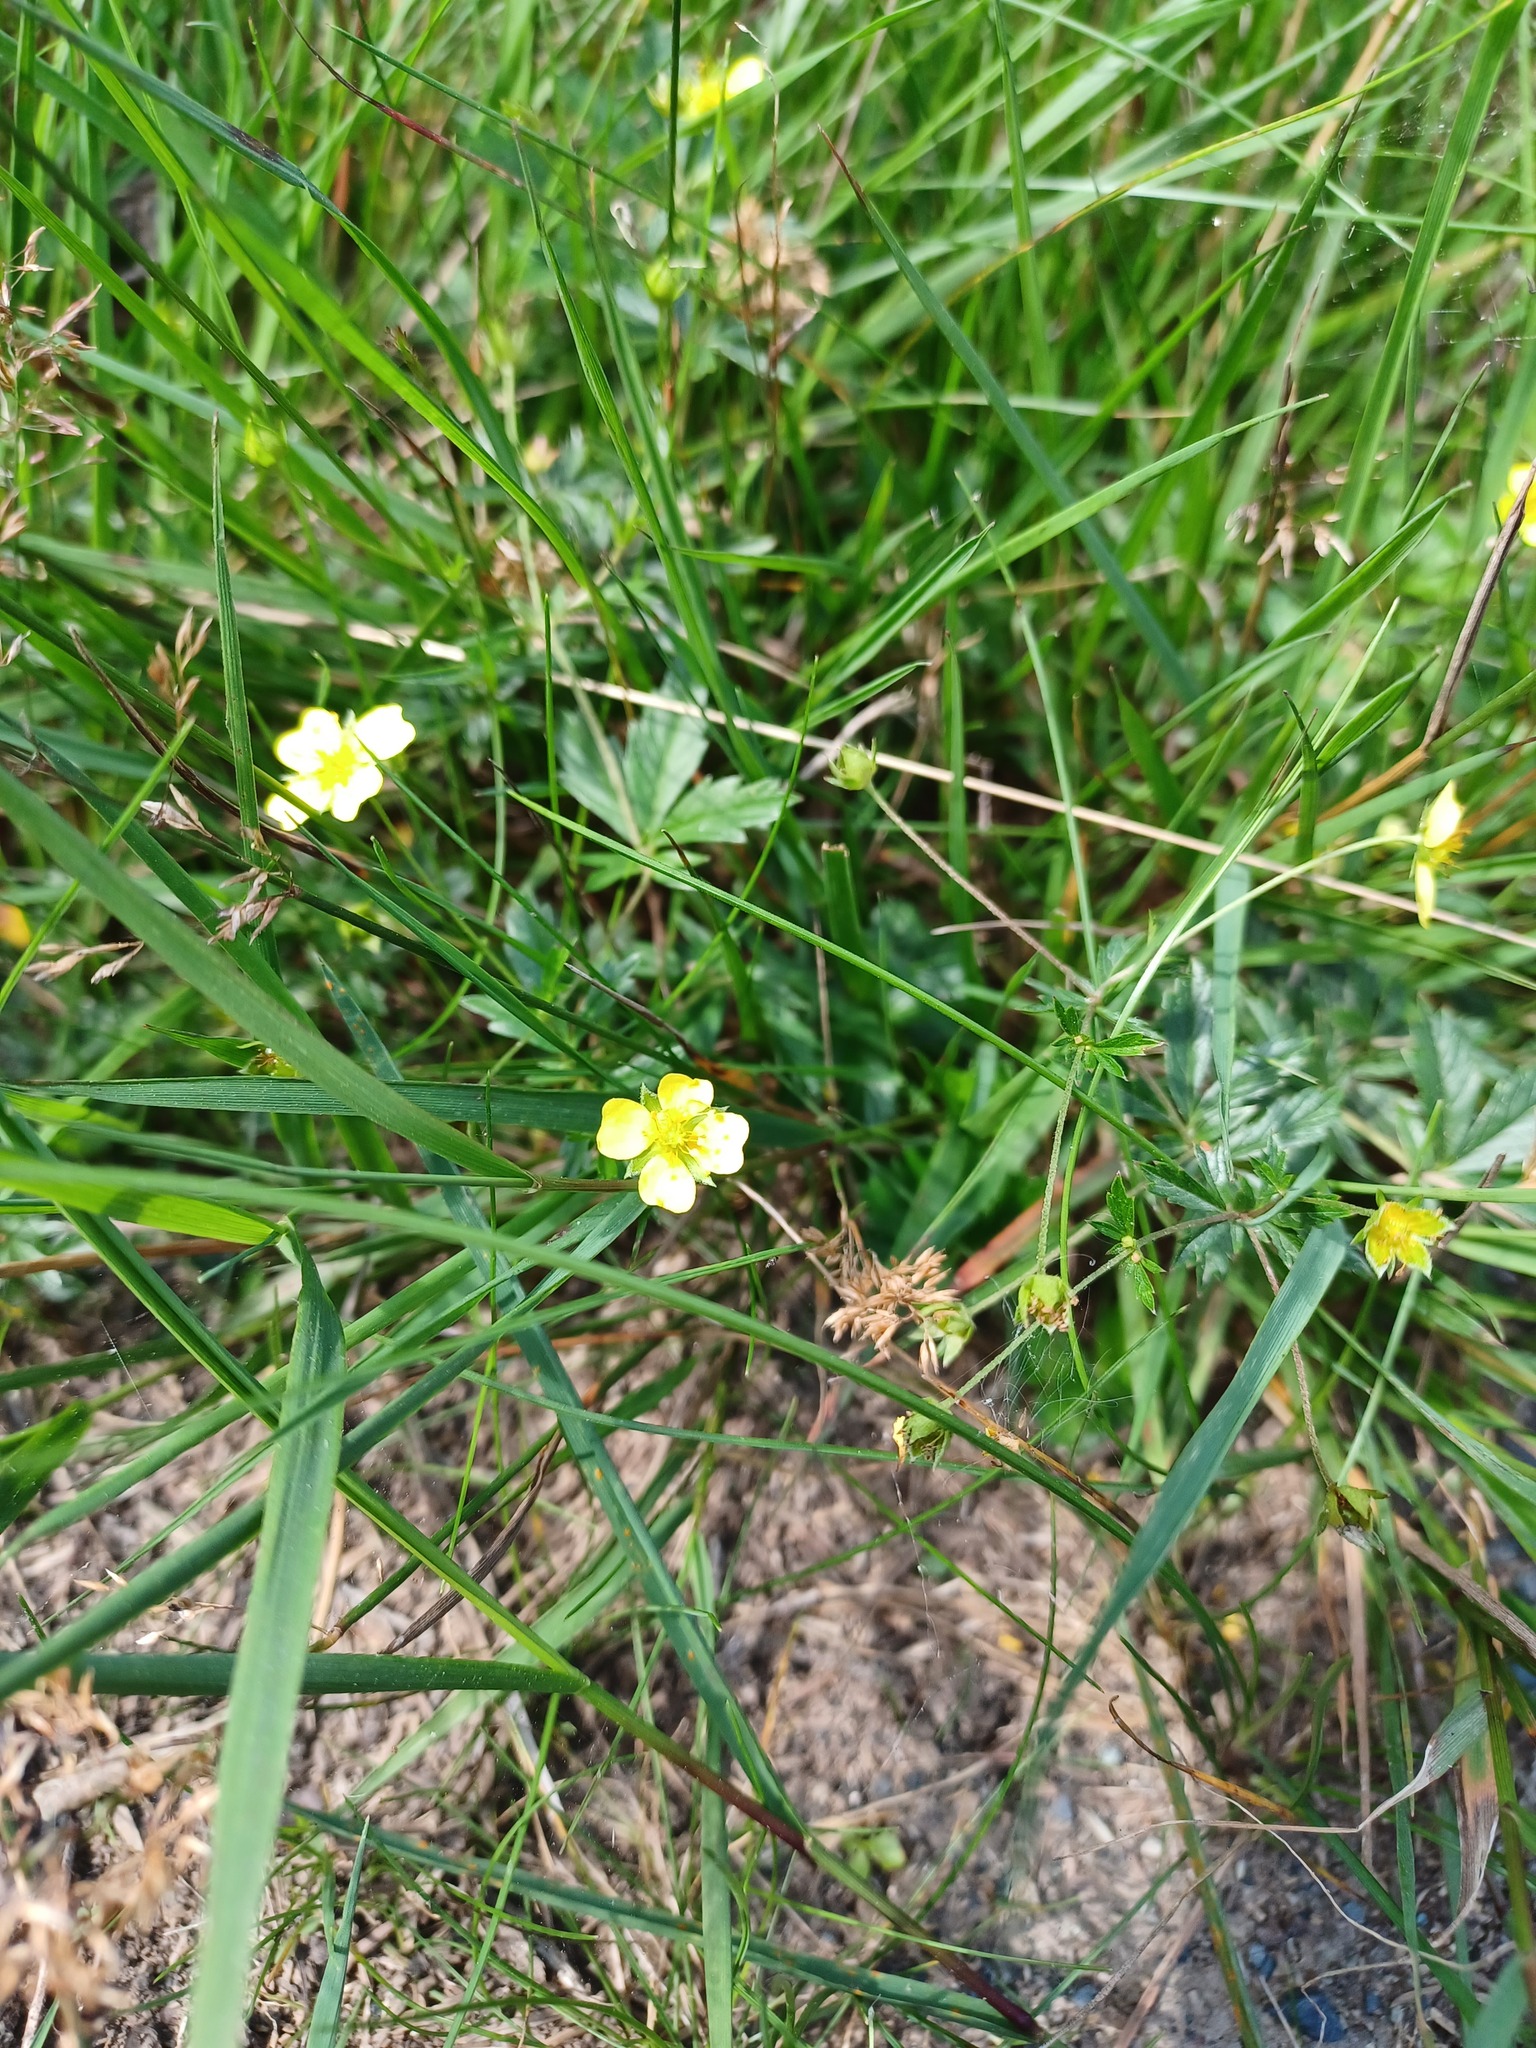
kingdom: Plantae
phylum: Tracheophyta
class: Magnoliopsida
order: Rosales
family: Rosaceae
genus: Potentilla
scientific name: Potentilla erecta
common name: Tormentil
